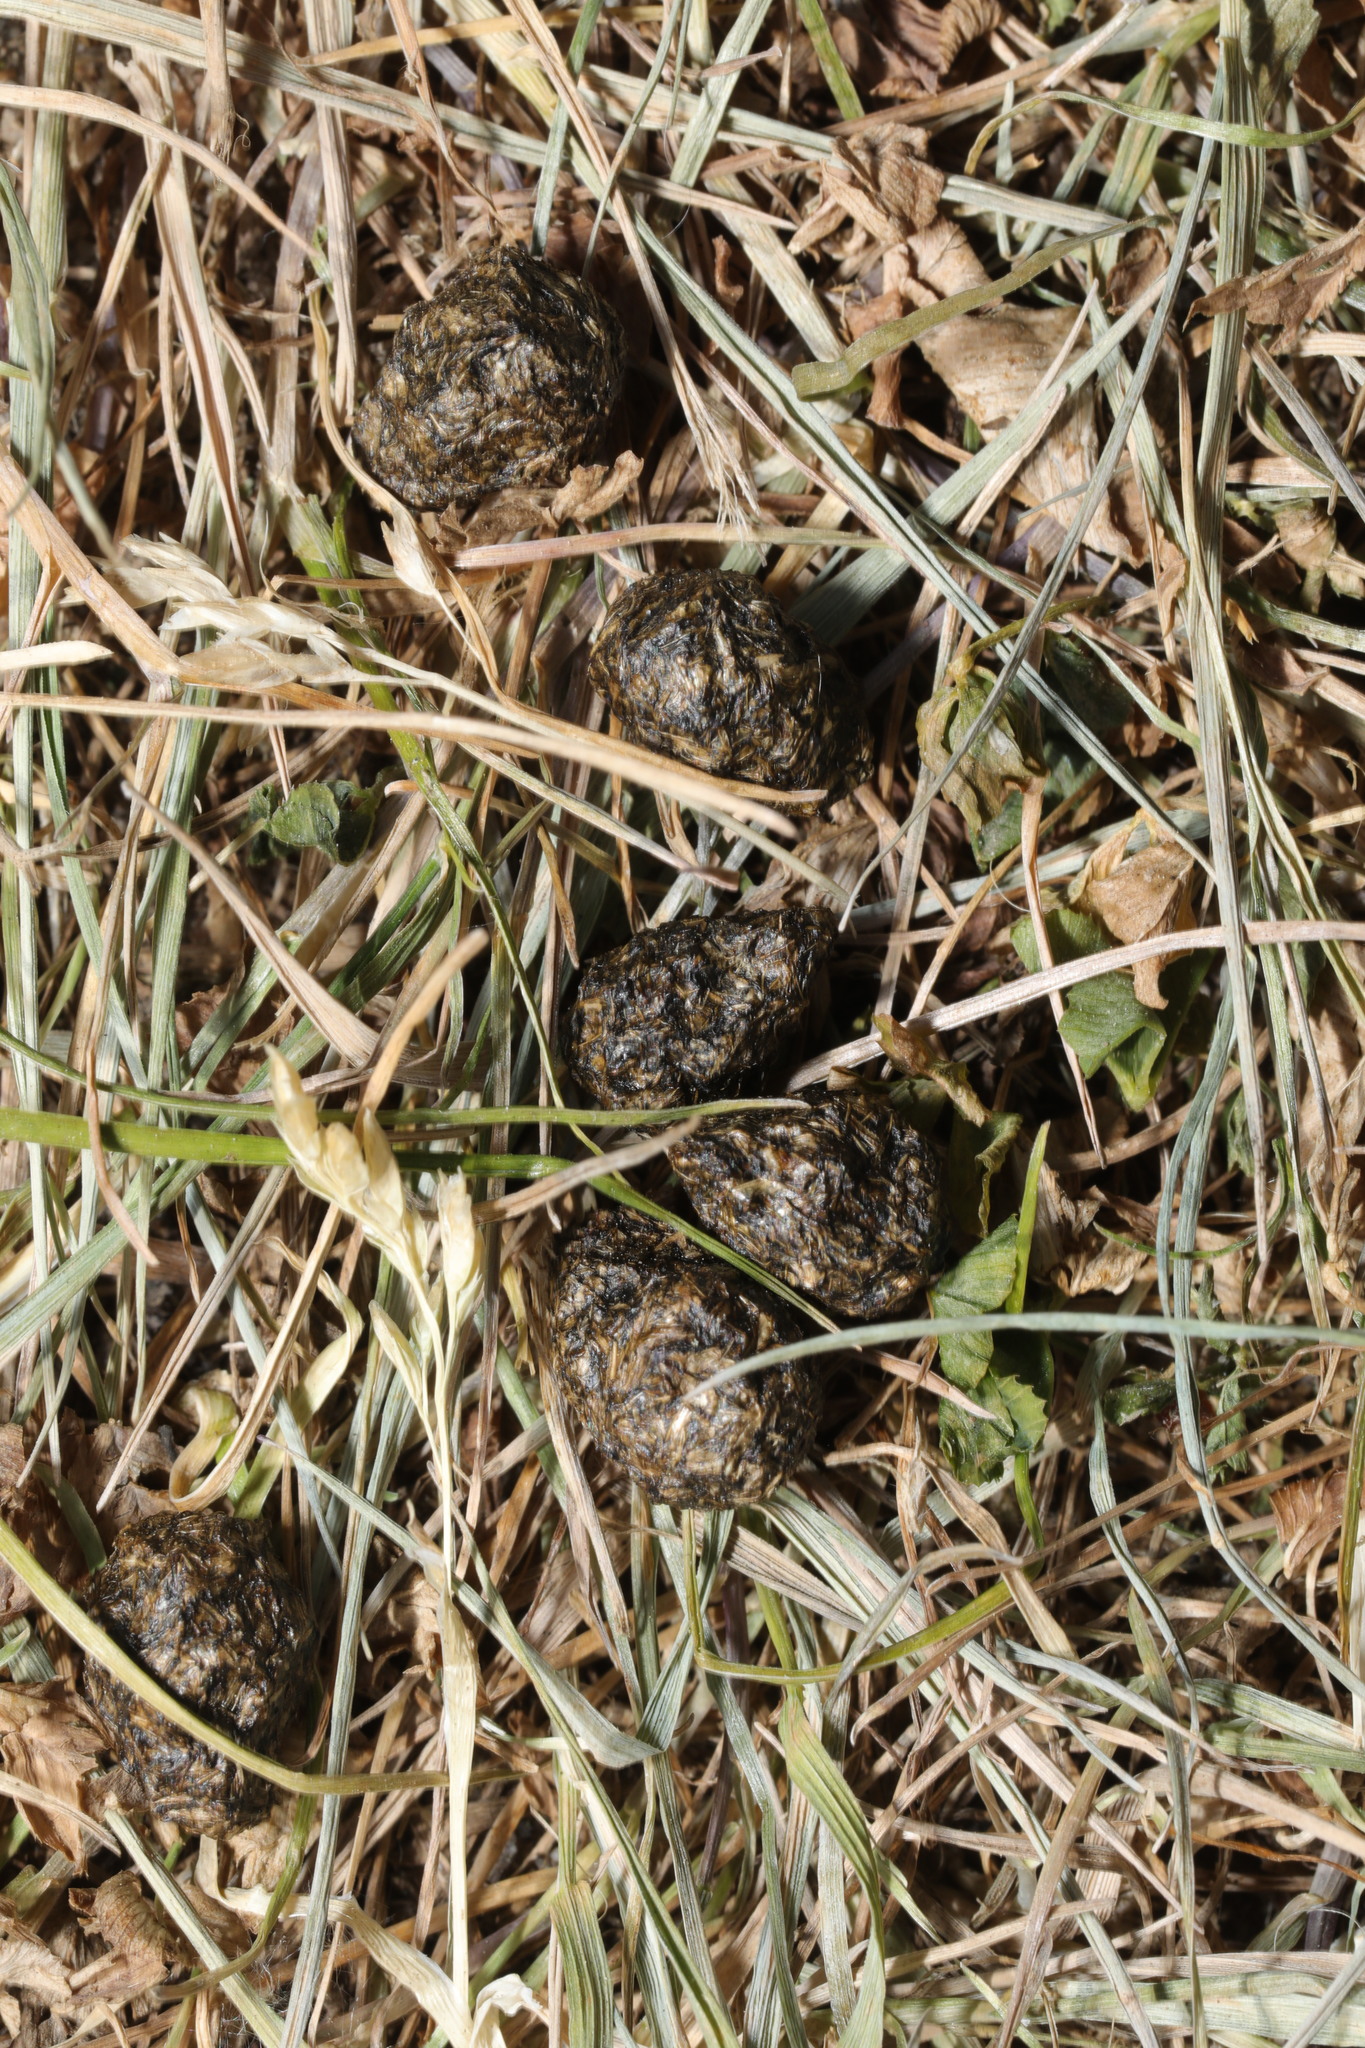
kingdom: Animalia
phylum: Chordata
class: Mammalia
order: Lagomorpha
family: Leporidae
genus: Oryctolagus
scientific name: Oryctolagus cuniculus
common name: European rabbit
